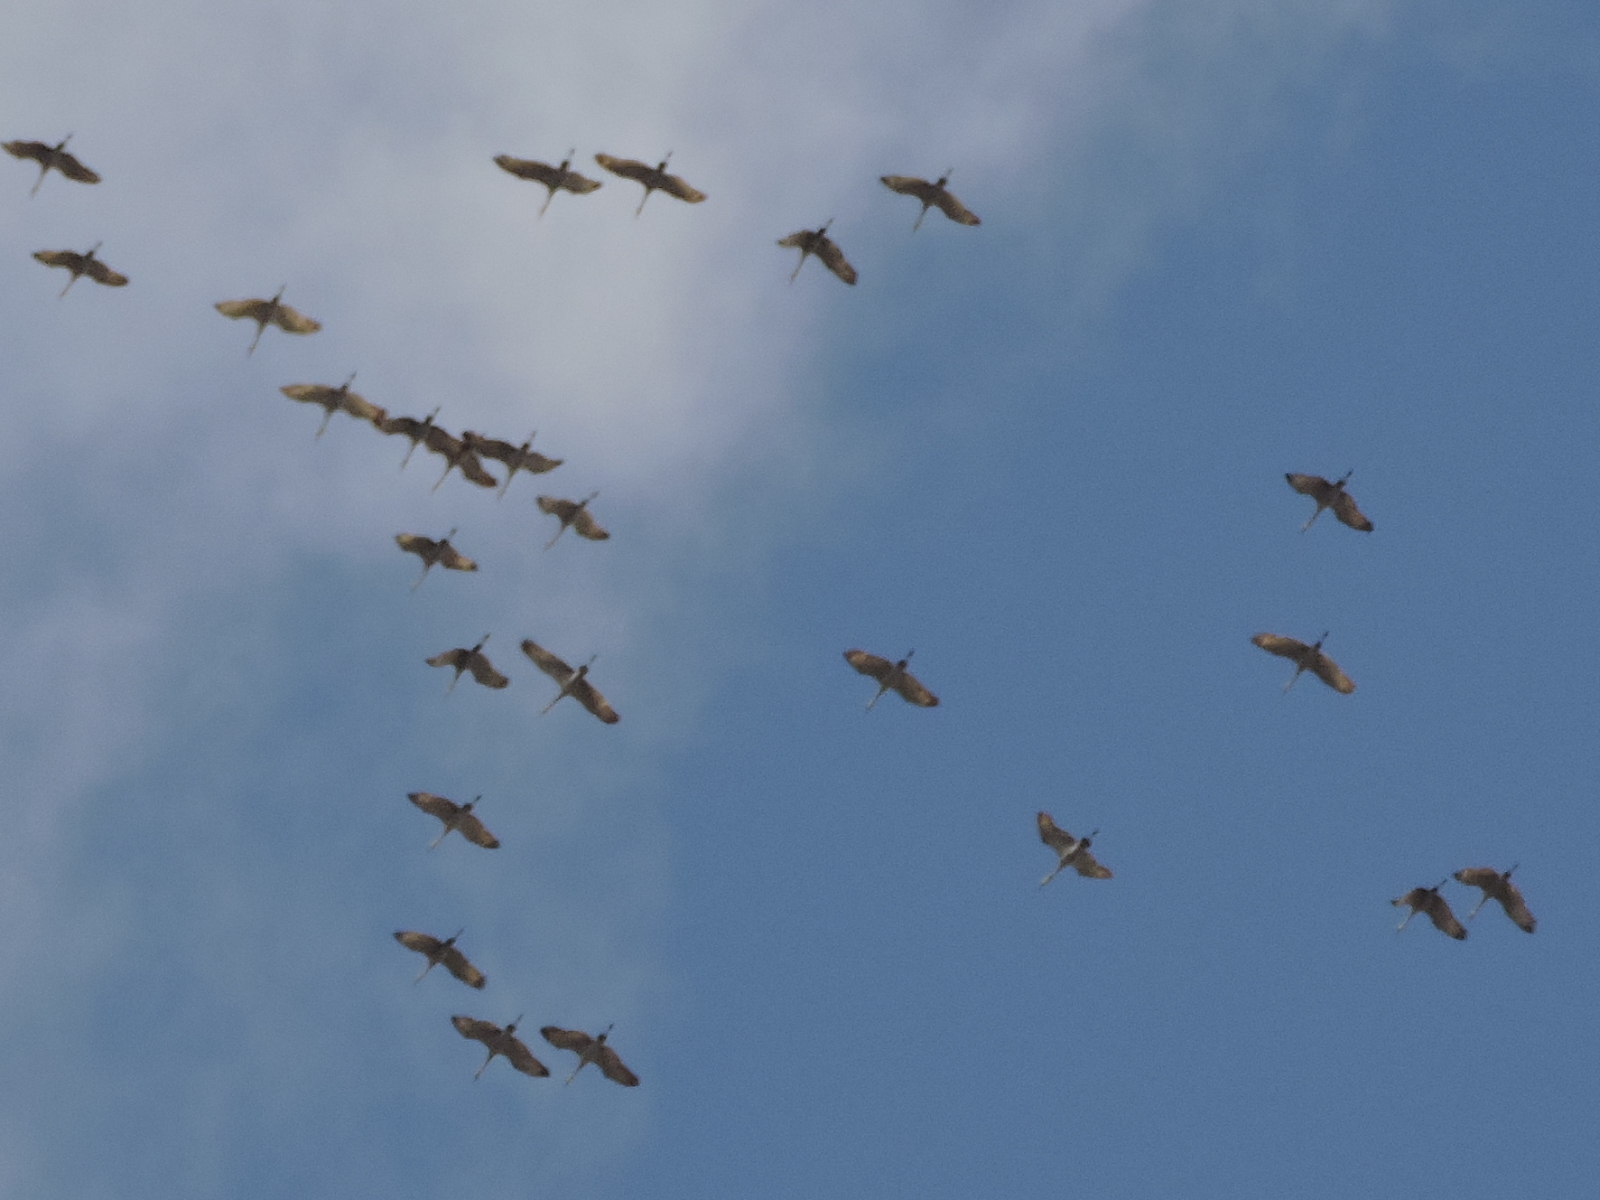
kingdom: Animalia
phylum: Chordata
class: Aves
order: Gruiformes
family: Gruidae
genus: Grus
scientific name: Grus canadensis
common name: Sandhill crane
